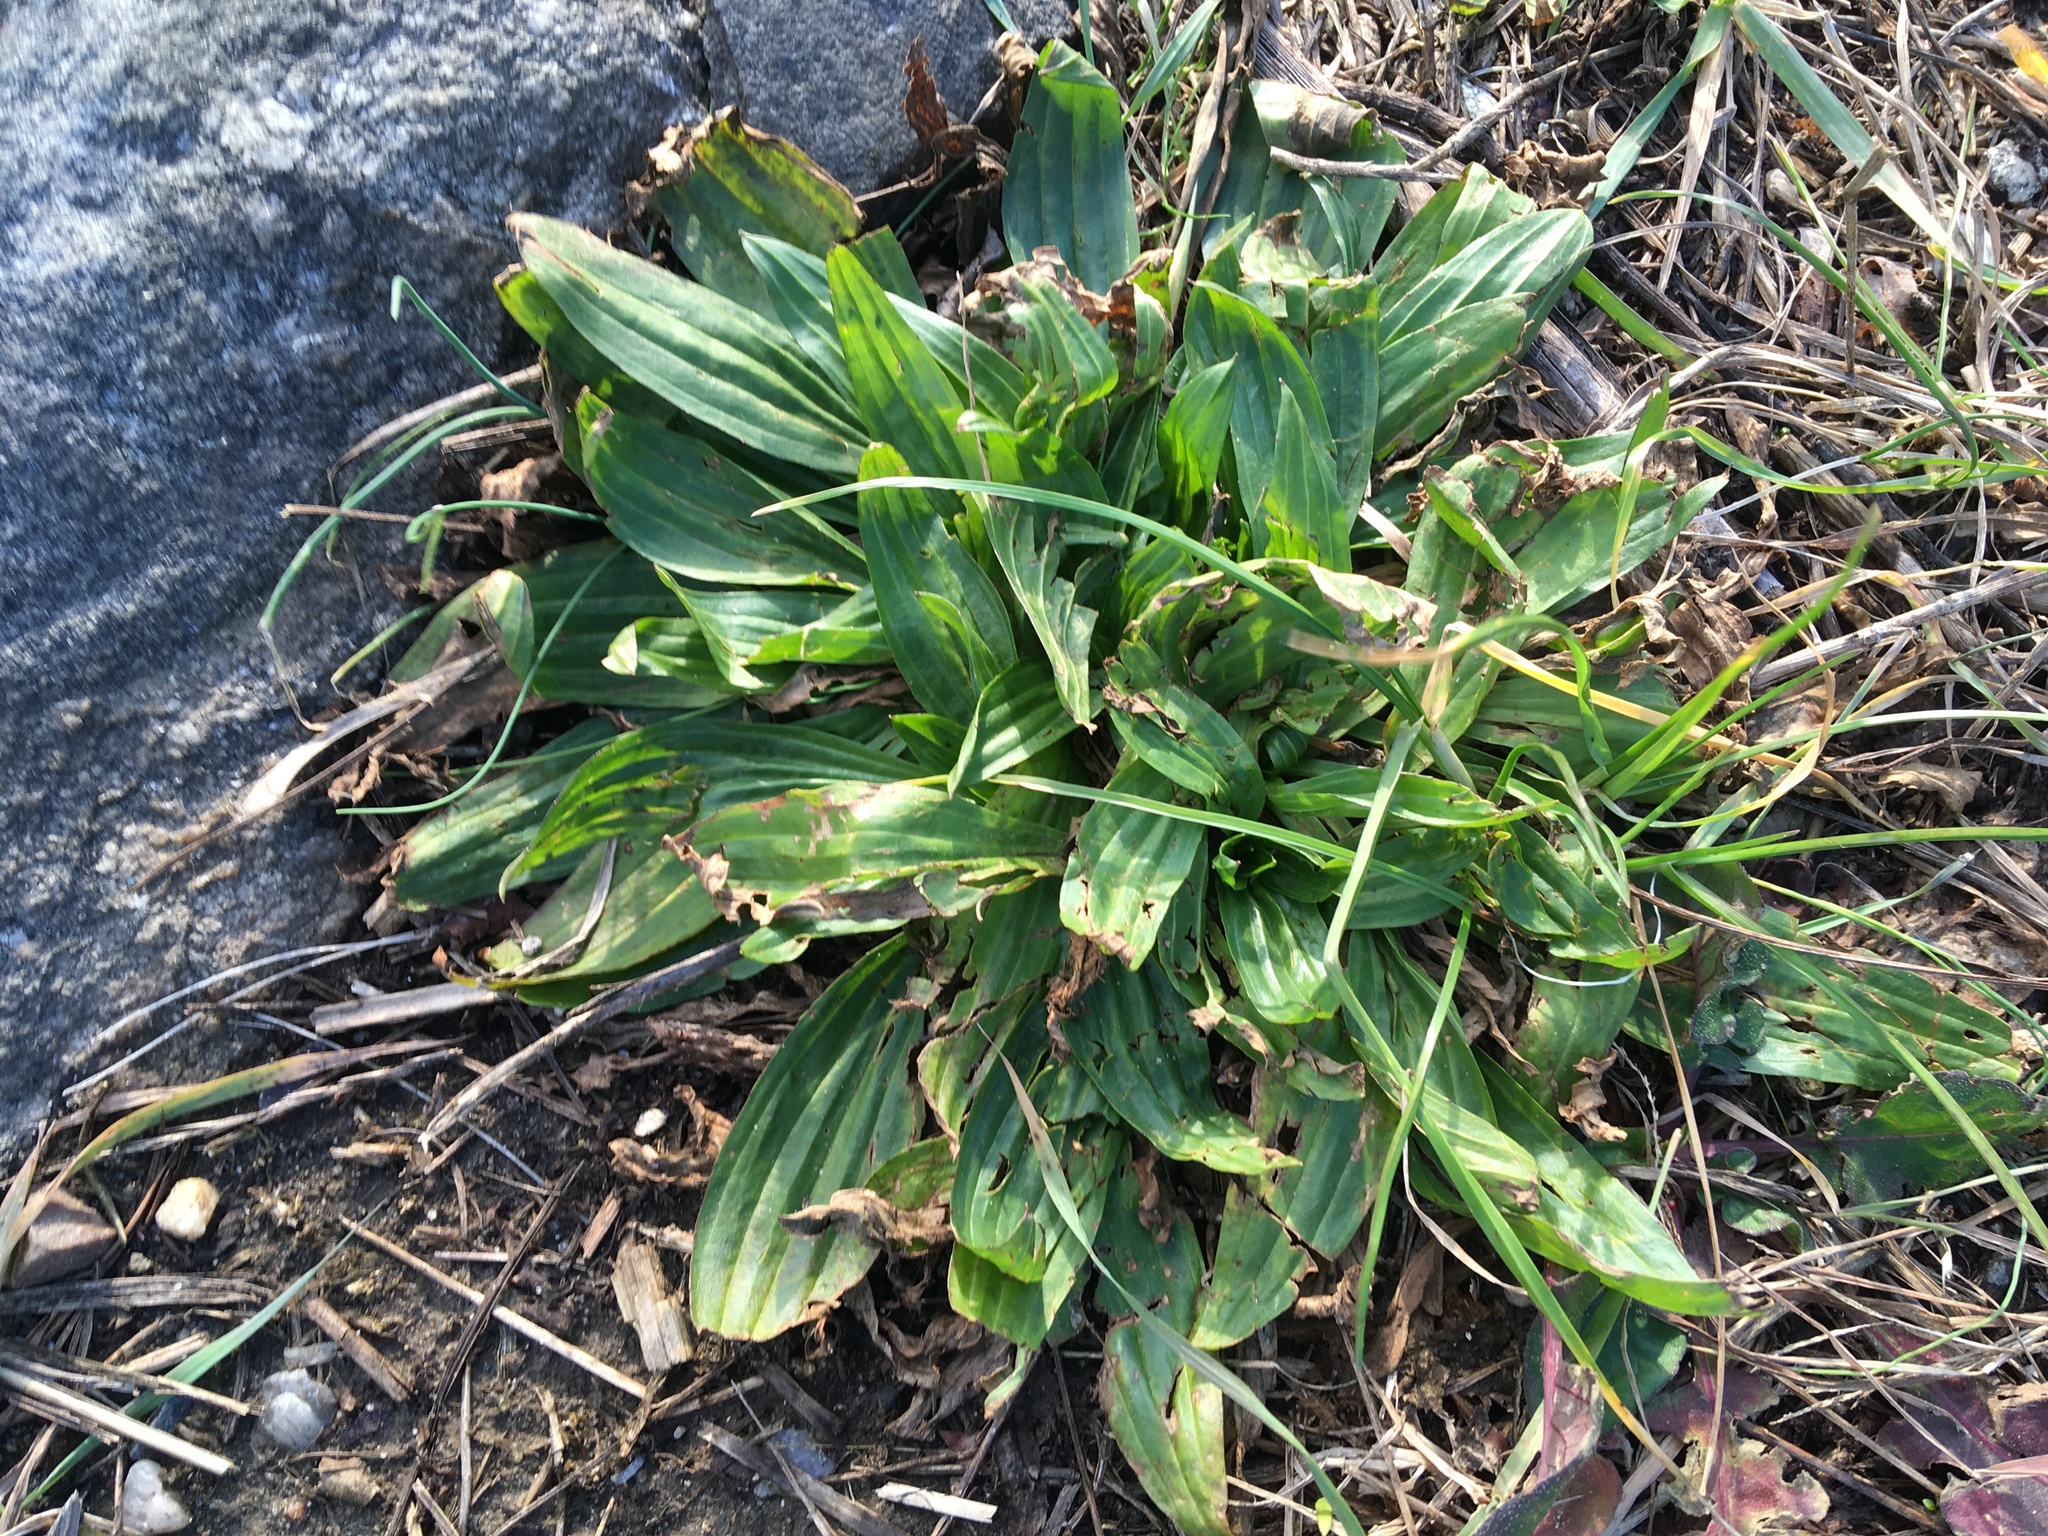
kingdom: Plantae
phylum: Tracheophyta
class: Magnoliopsida
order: Lamiales
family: Plantaginaceae
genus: Plantago
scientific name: Plantago lanceolata
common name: Ribwort plantain
